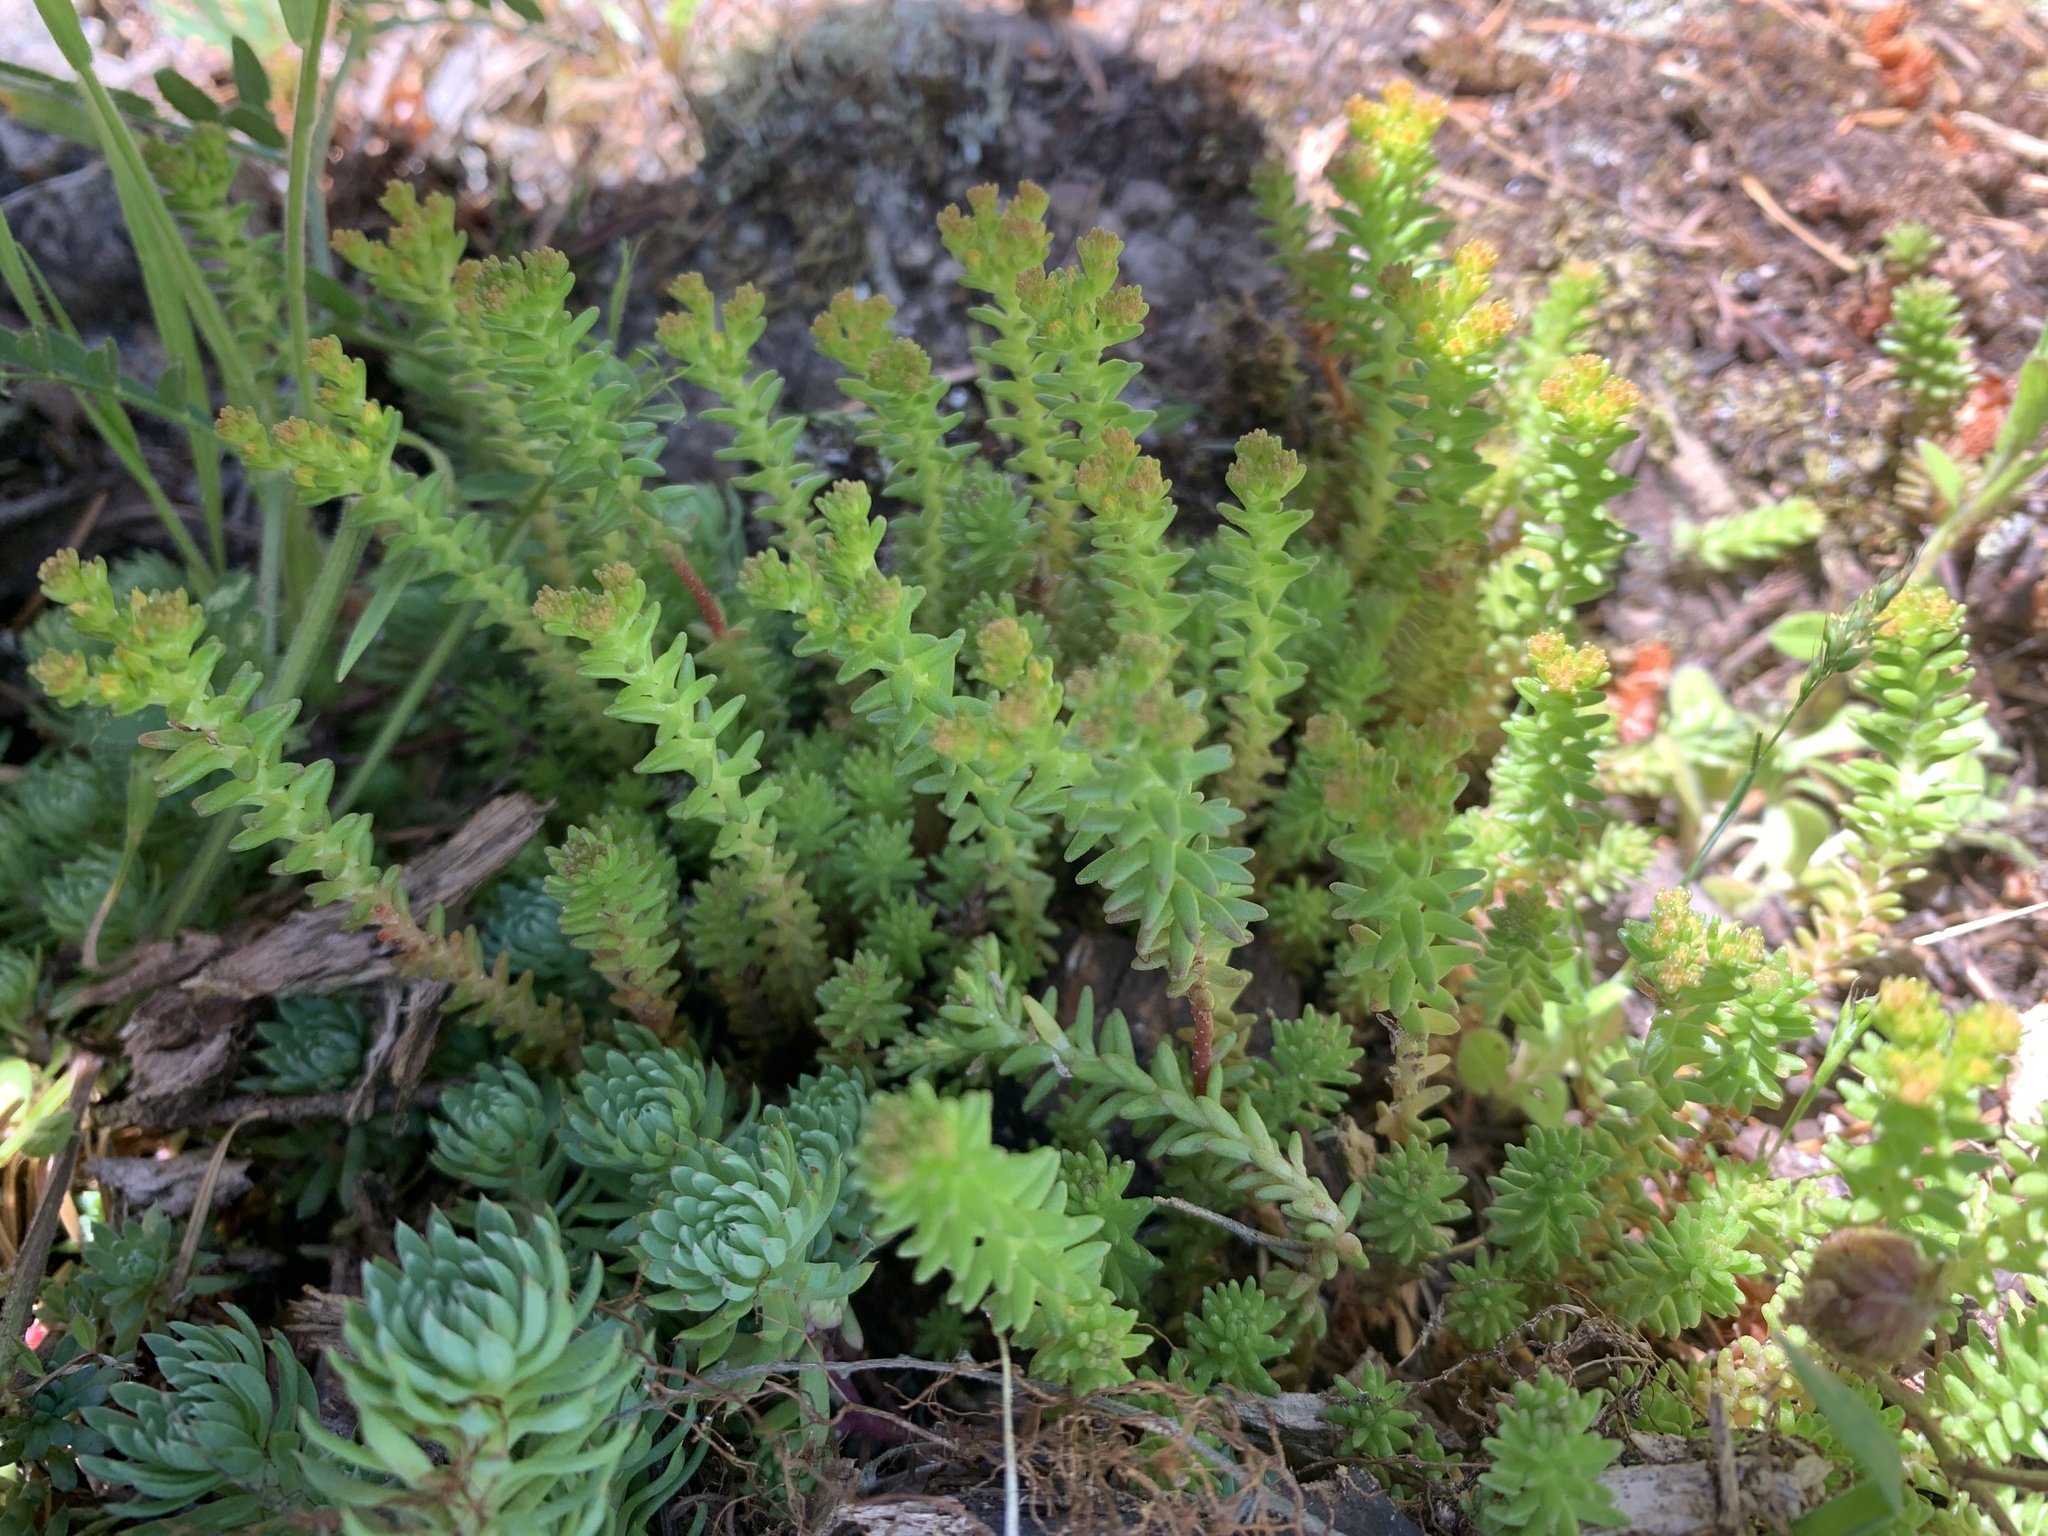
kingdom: Plantae
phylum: Tracheophyta
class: Magnoliopsida
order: Saxifragales
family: Crassulaceae
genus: Sedum
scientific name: Sedum sexangulare
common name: Tasteless stonecrop
